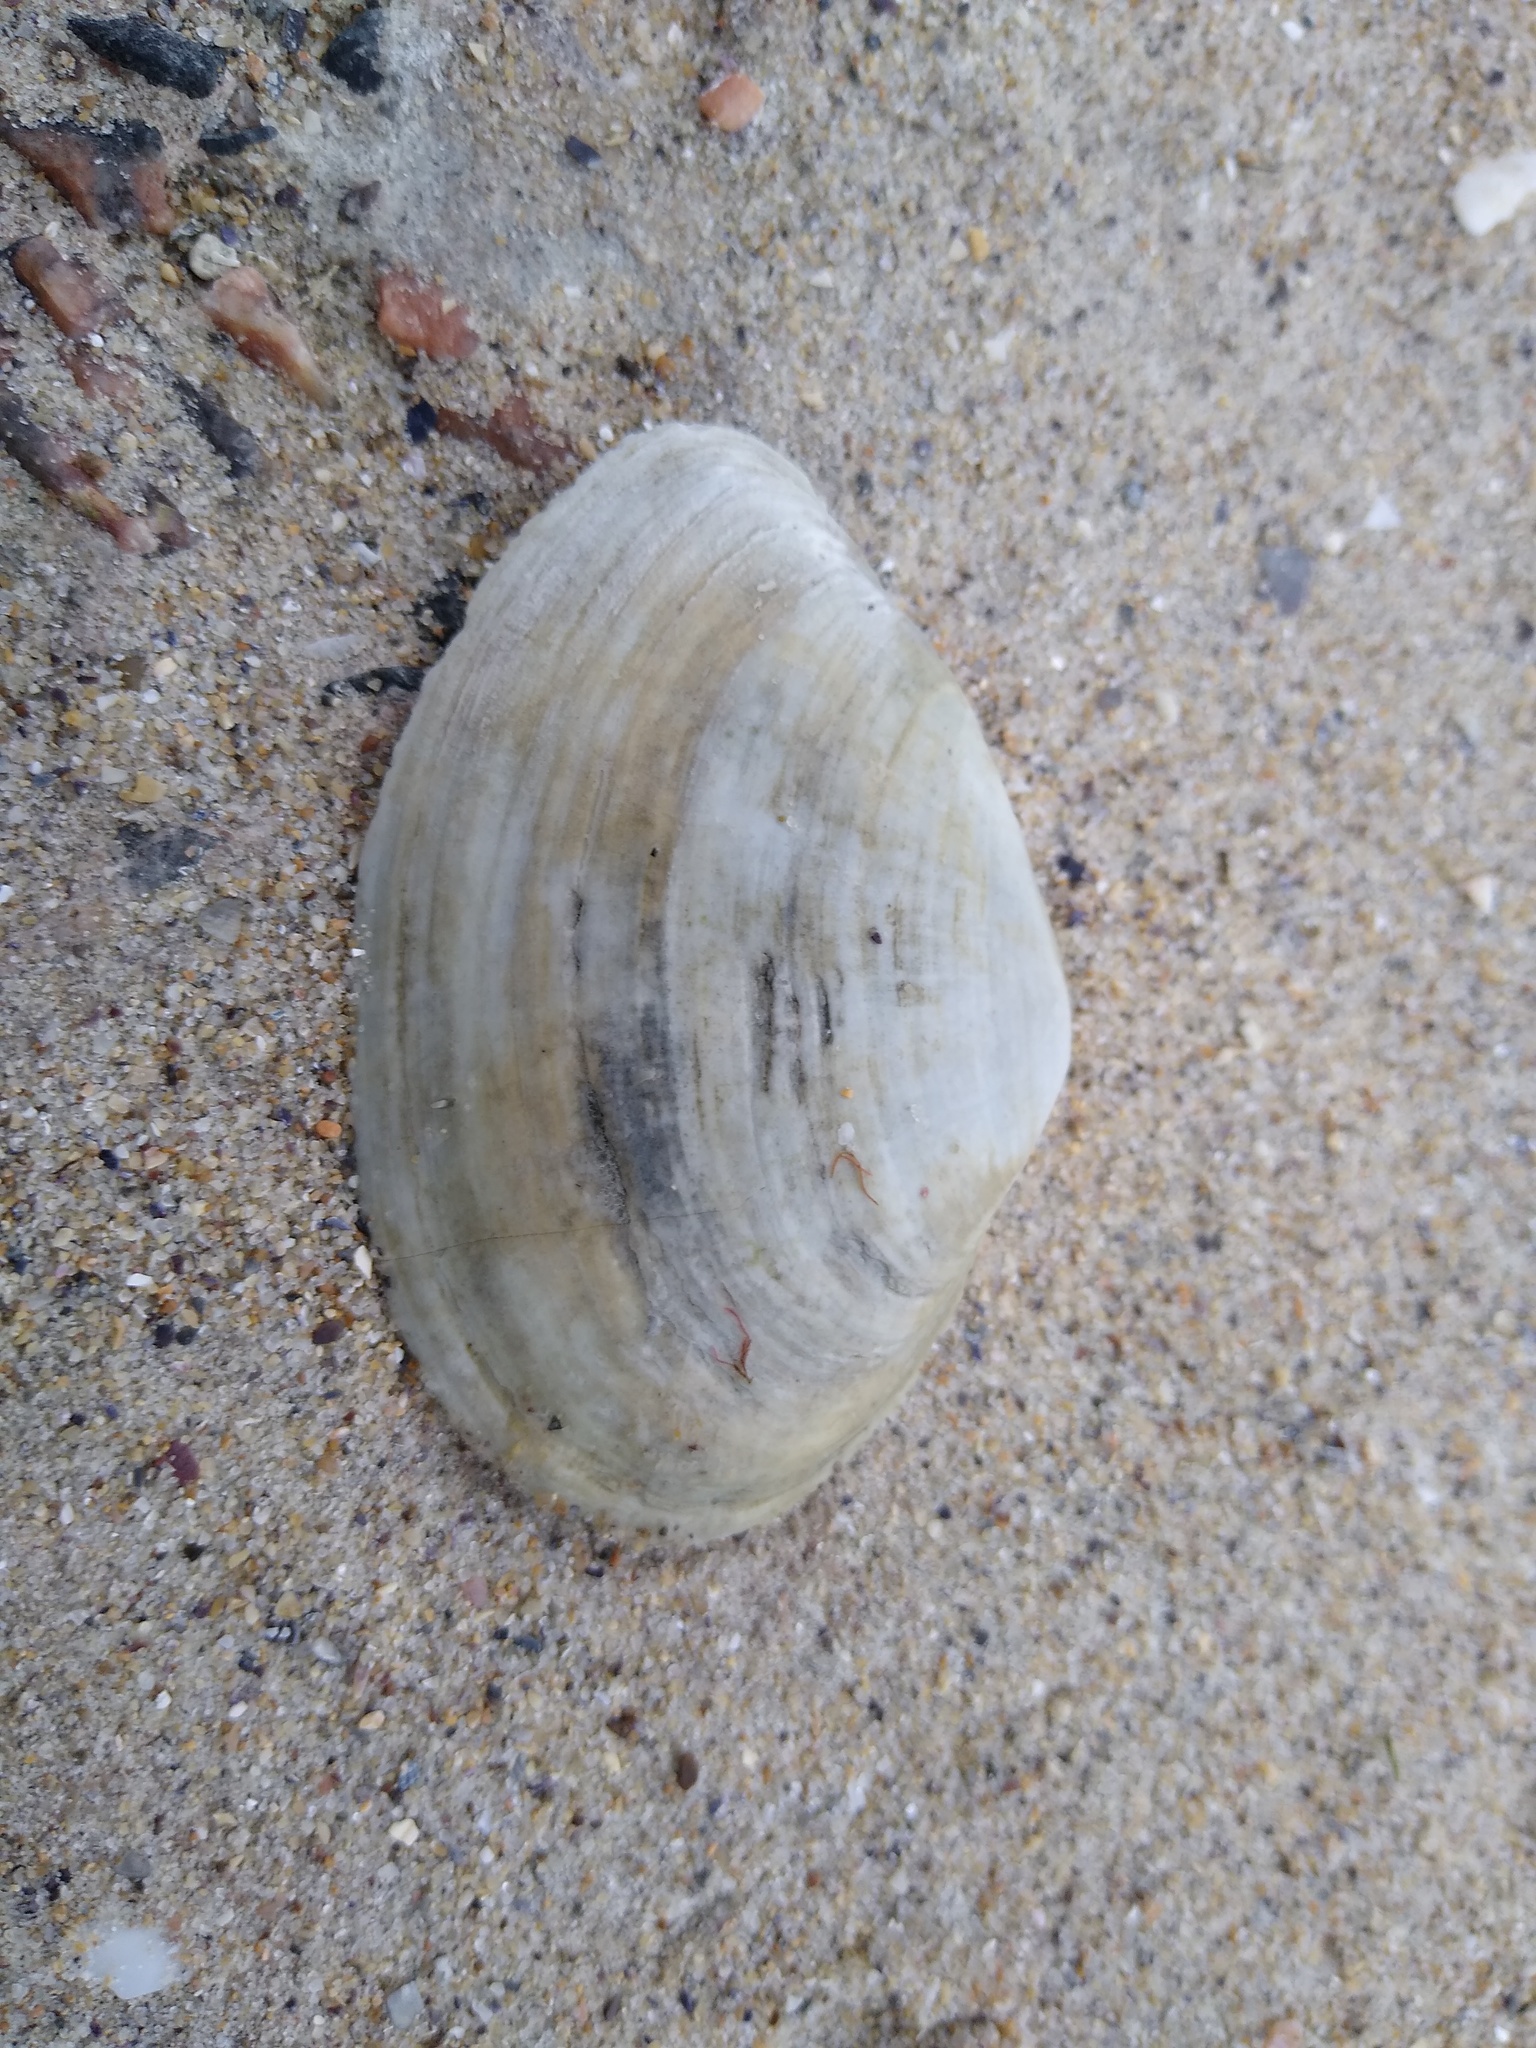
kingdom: Animalia
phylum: Mollusca
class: Bivalvia
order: Myida
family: Myidae
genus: Mya
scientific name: Mya arenaria
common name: Soft-shelled clam
